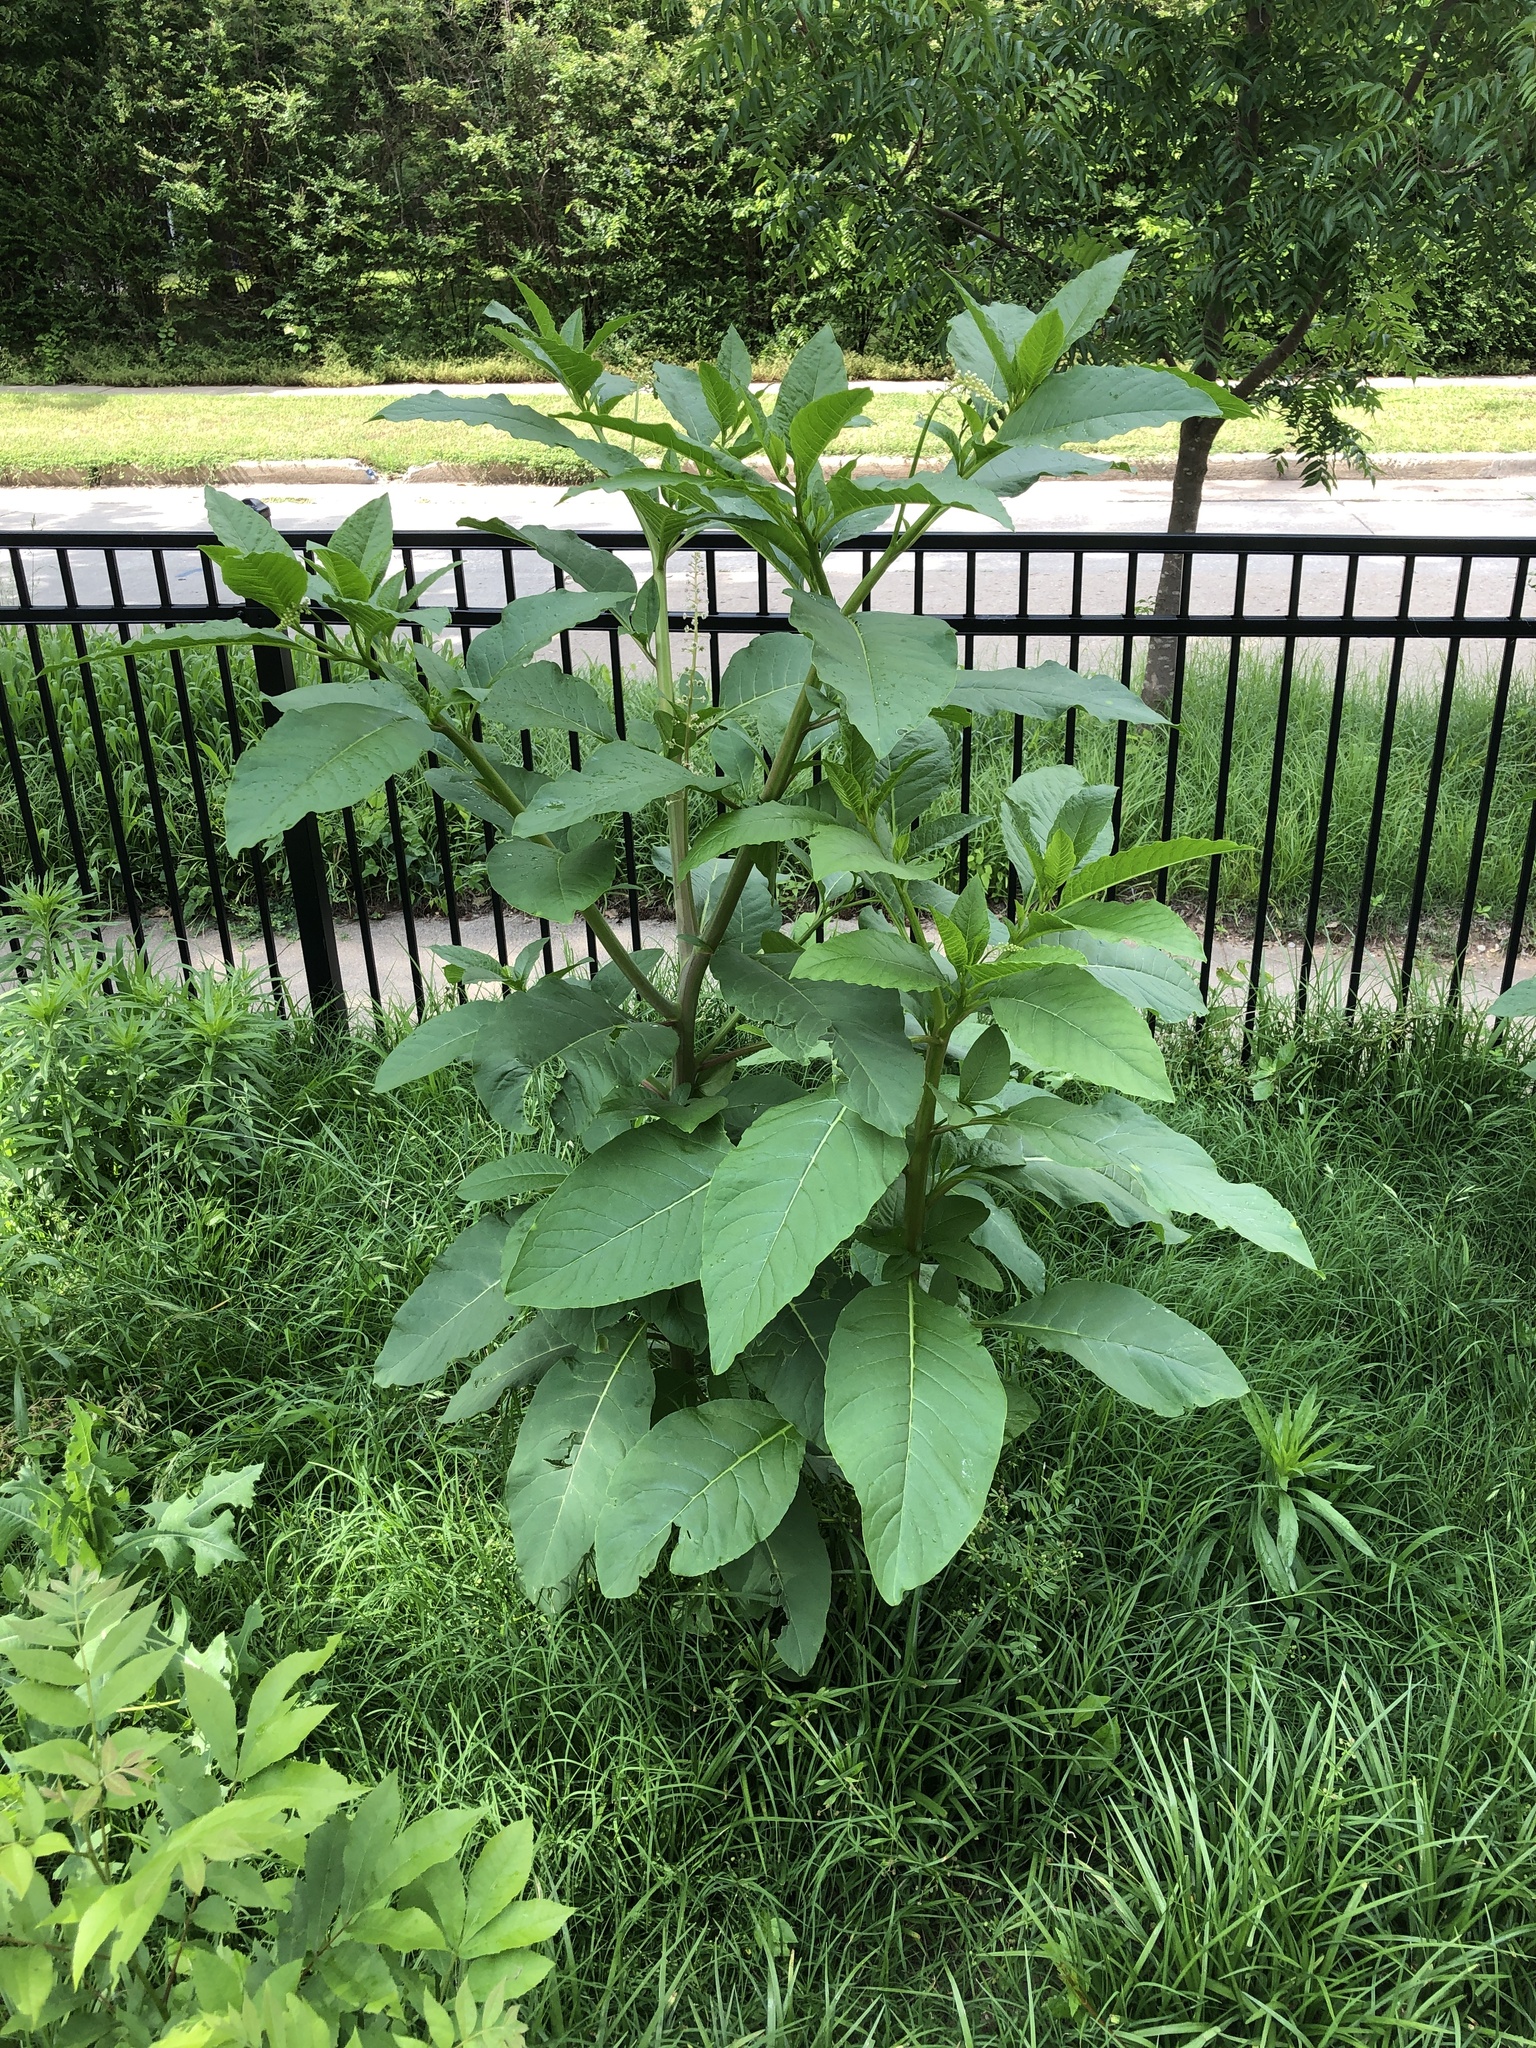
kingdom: Plantae
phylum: Tracheophyta
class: Magnoliopsida
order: Caryophyllales
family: Phytolaccaceae
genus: Phytolacca
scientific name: Phytolacca americana
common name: American pokeweed
